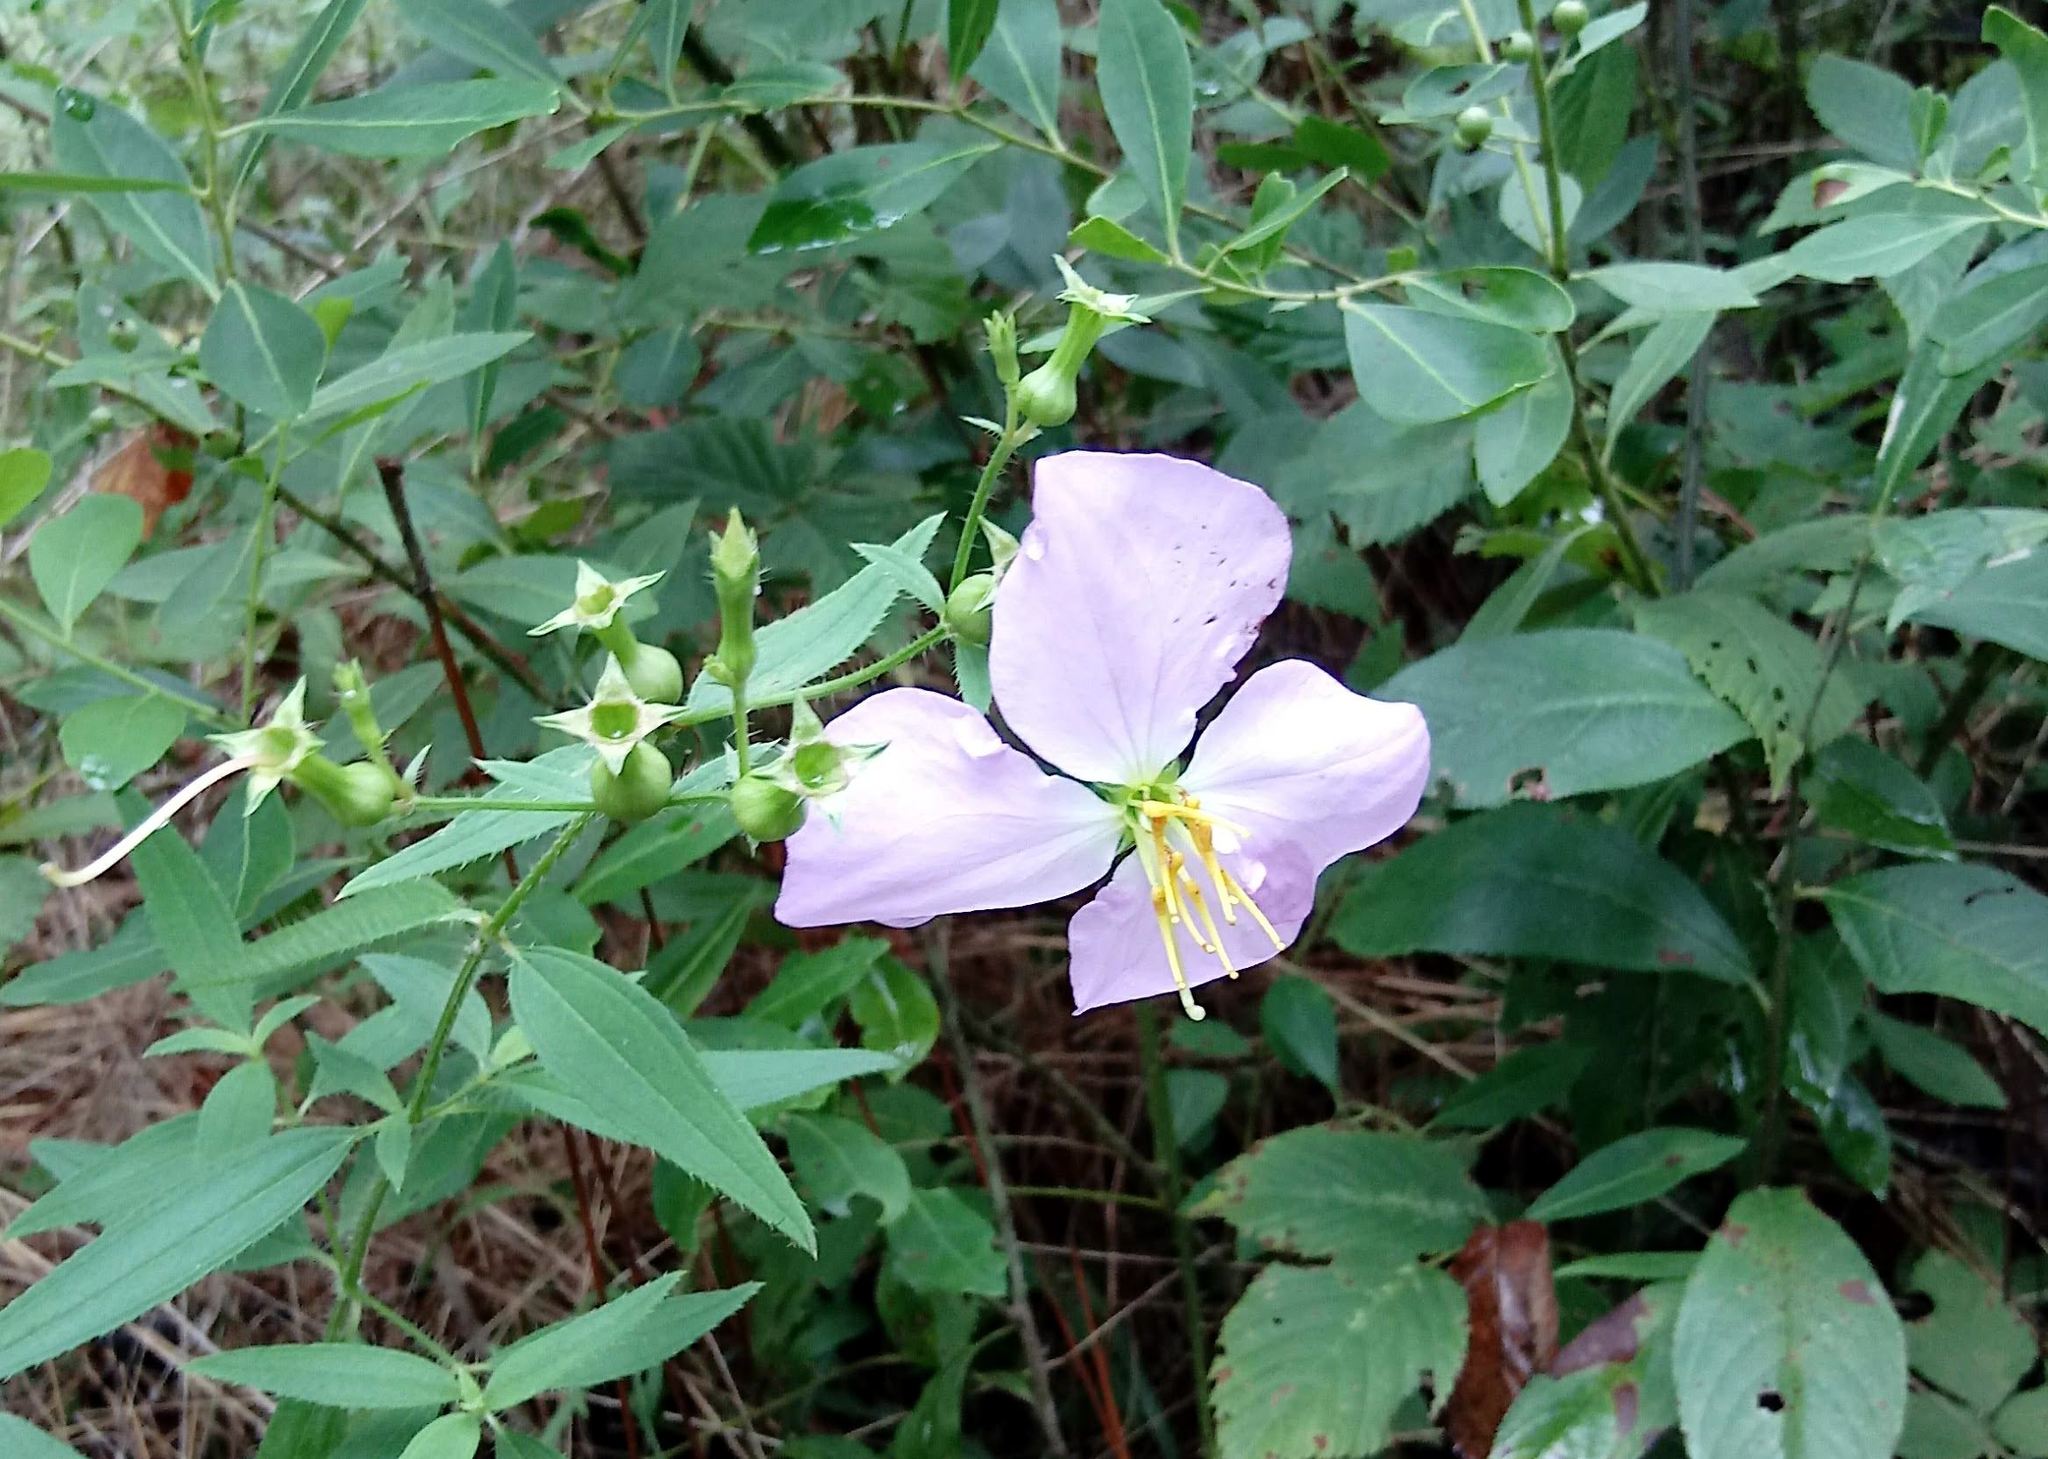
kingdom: Plantae
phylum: Tracheophyta
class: Magnoliopsida
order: Myrtales
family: Melastomataceae
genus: Rhexia
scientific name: Rhexia nashii
